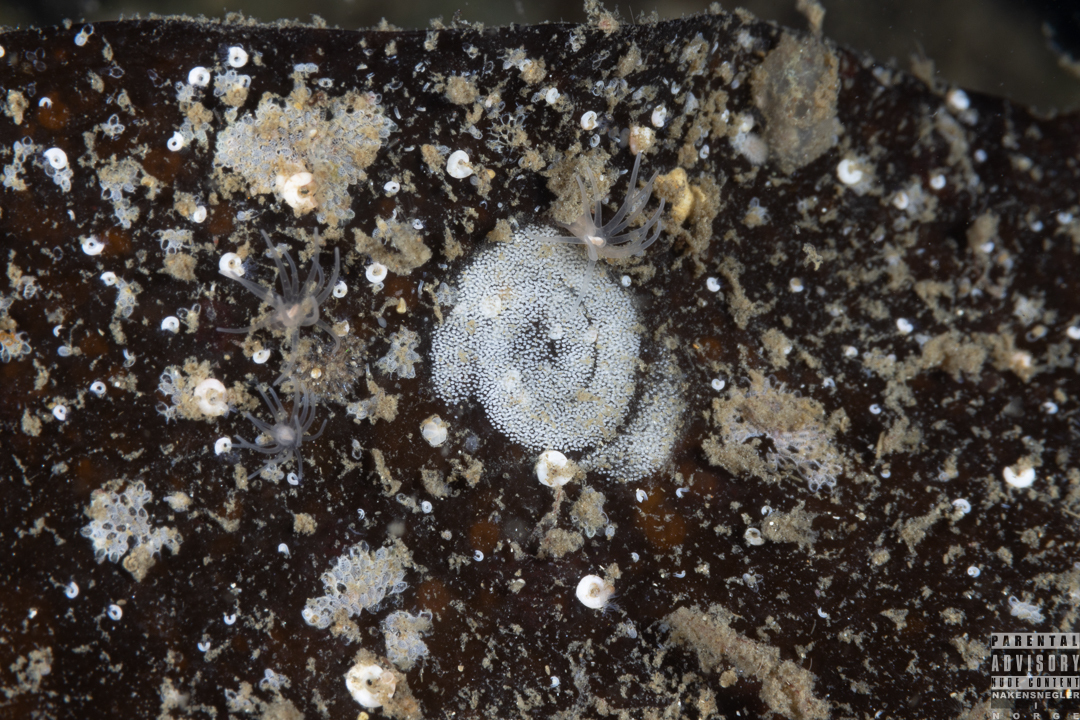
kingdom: Animalia
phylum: Mollusca
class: Gastropoda
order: Nudibranchia
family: Polyceridae
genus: Limacia
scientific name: Limacia clavigera
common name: Orange-clubbed sea slug
